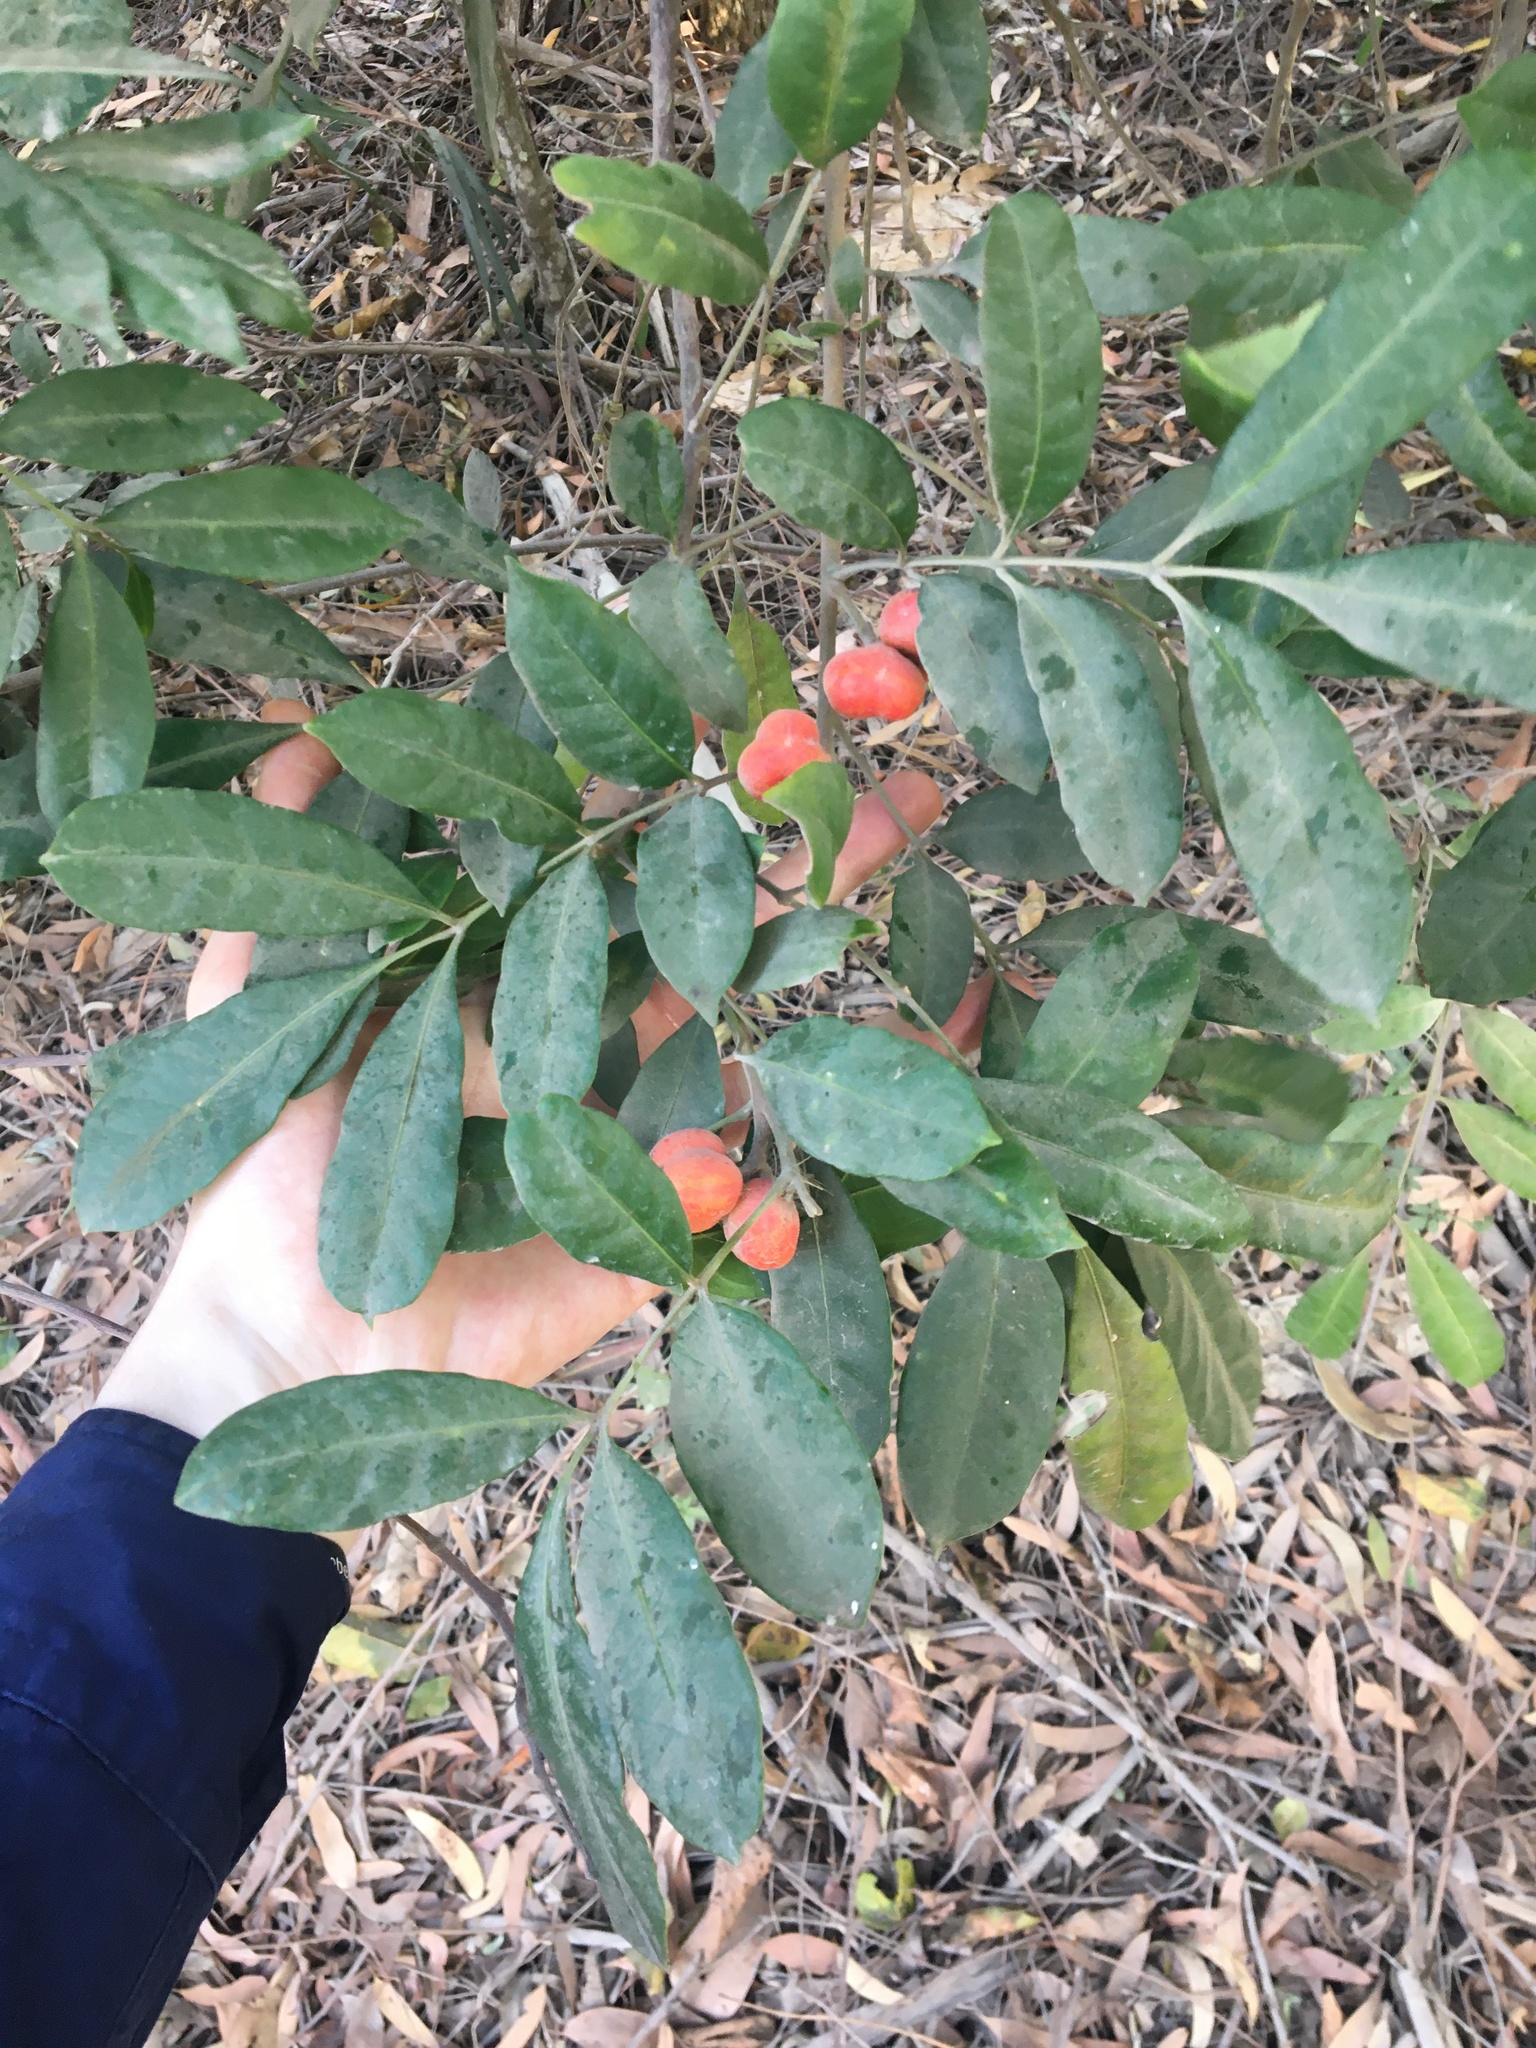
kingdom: Plantae
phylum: Tracheophyta
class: Magnoliopsida
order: Sapindales
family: Meliaceae
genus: Synoum
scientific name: Synoum glandulosum
